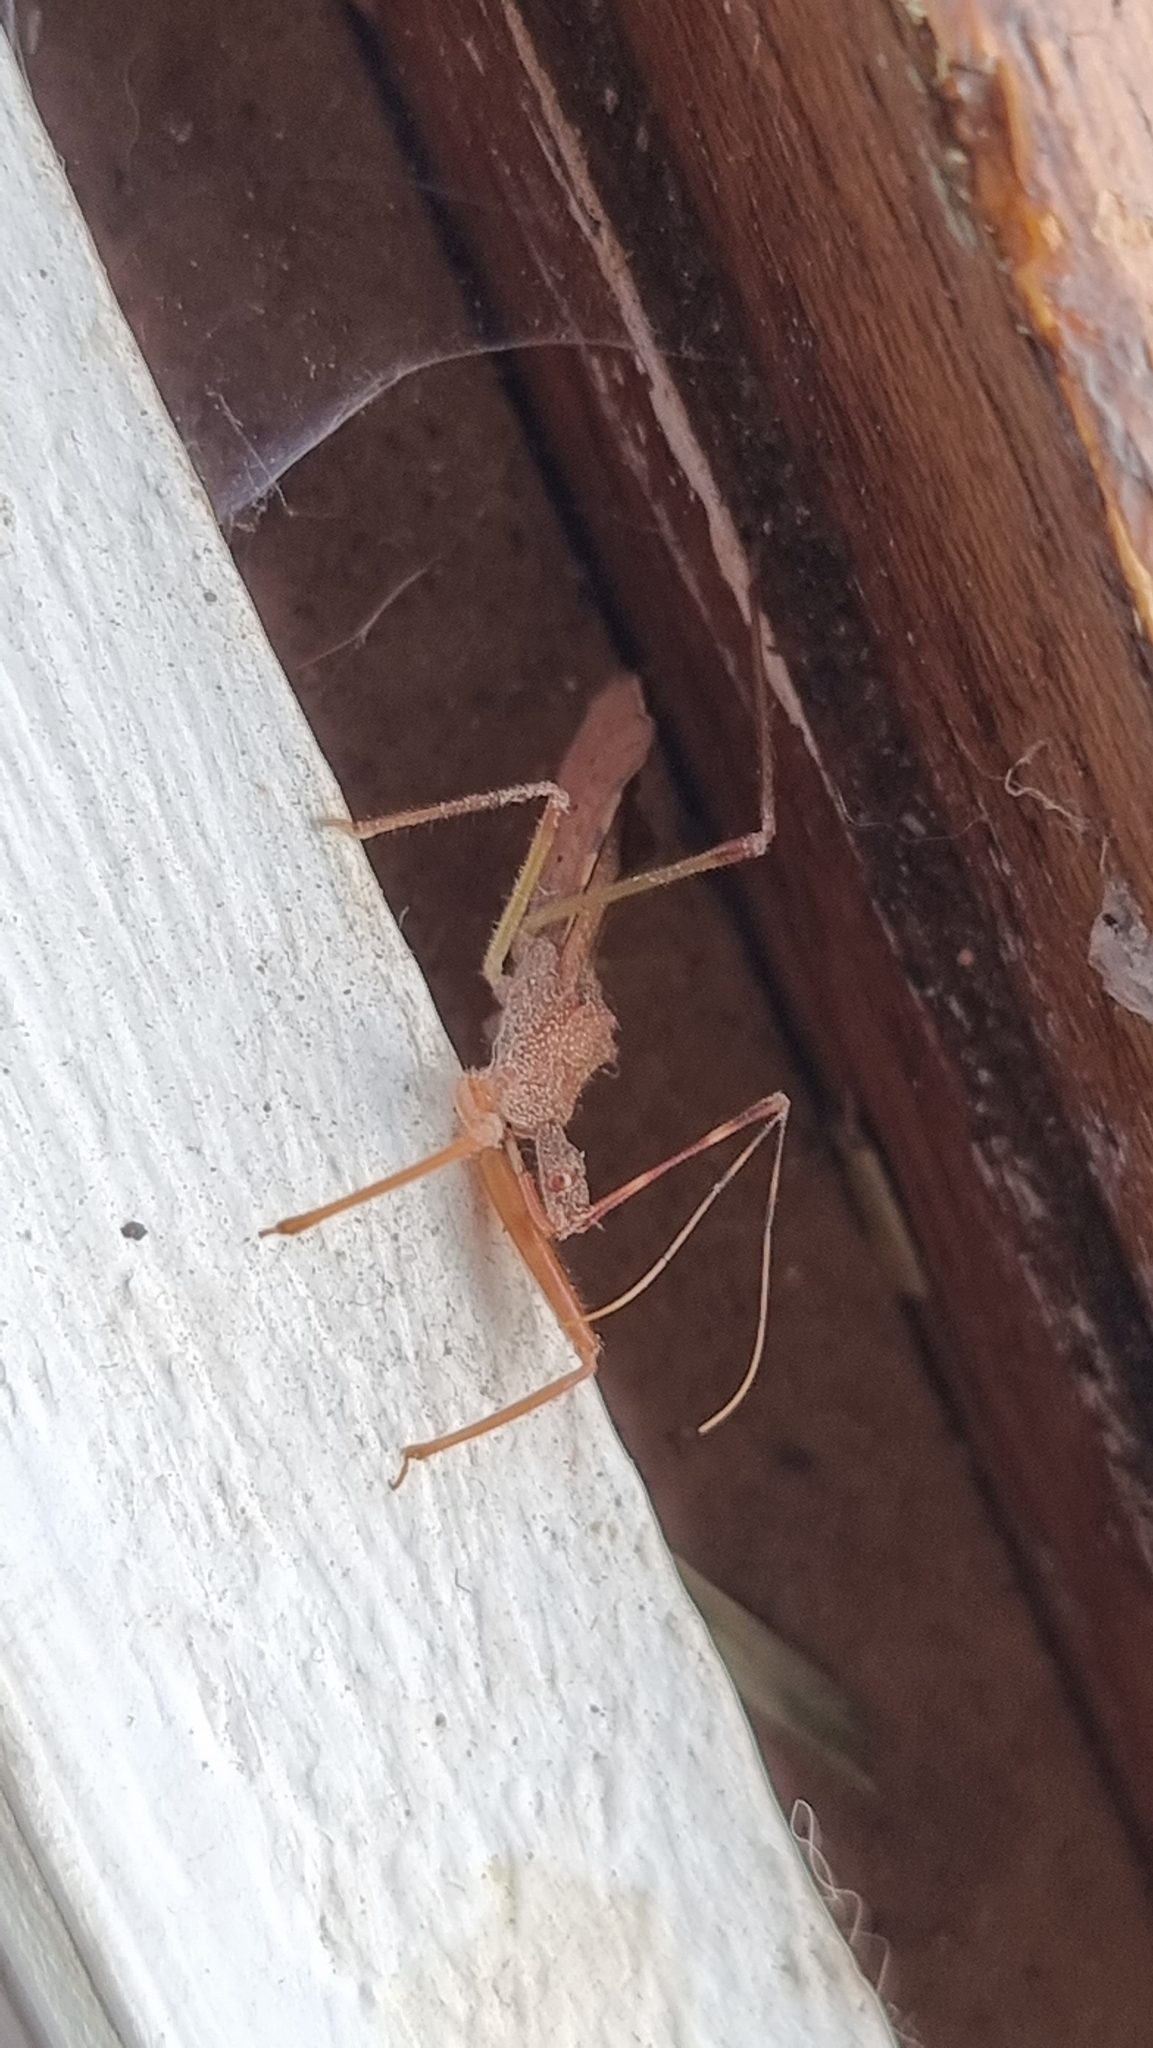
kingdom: Animalia
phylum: Arthropoda
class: Insecta
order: Hemiptera
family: Reduviidae
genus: Nagusta
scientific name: Nagusta goedelii
